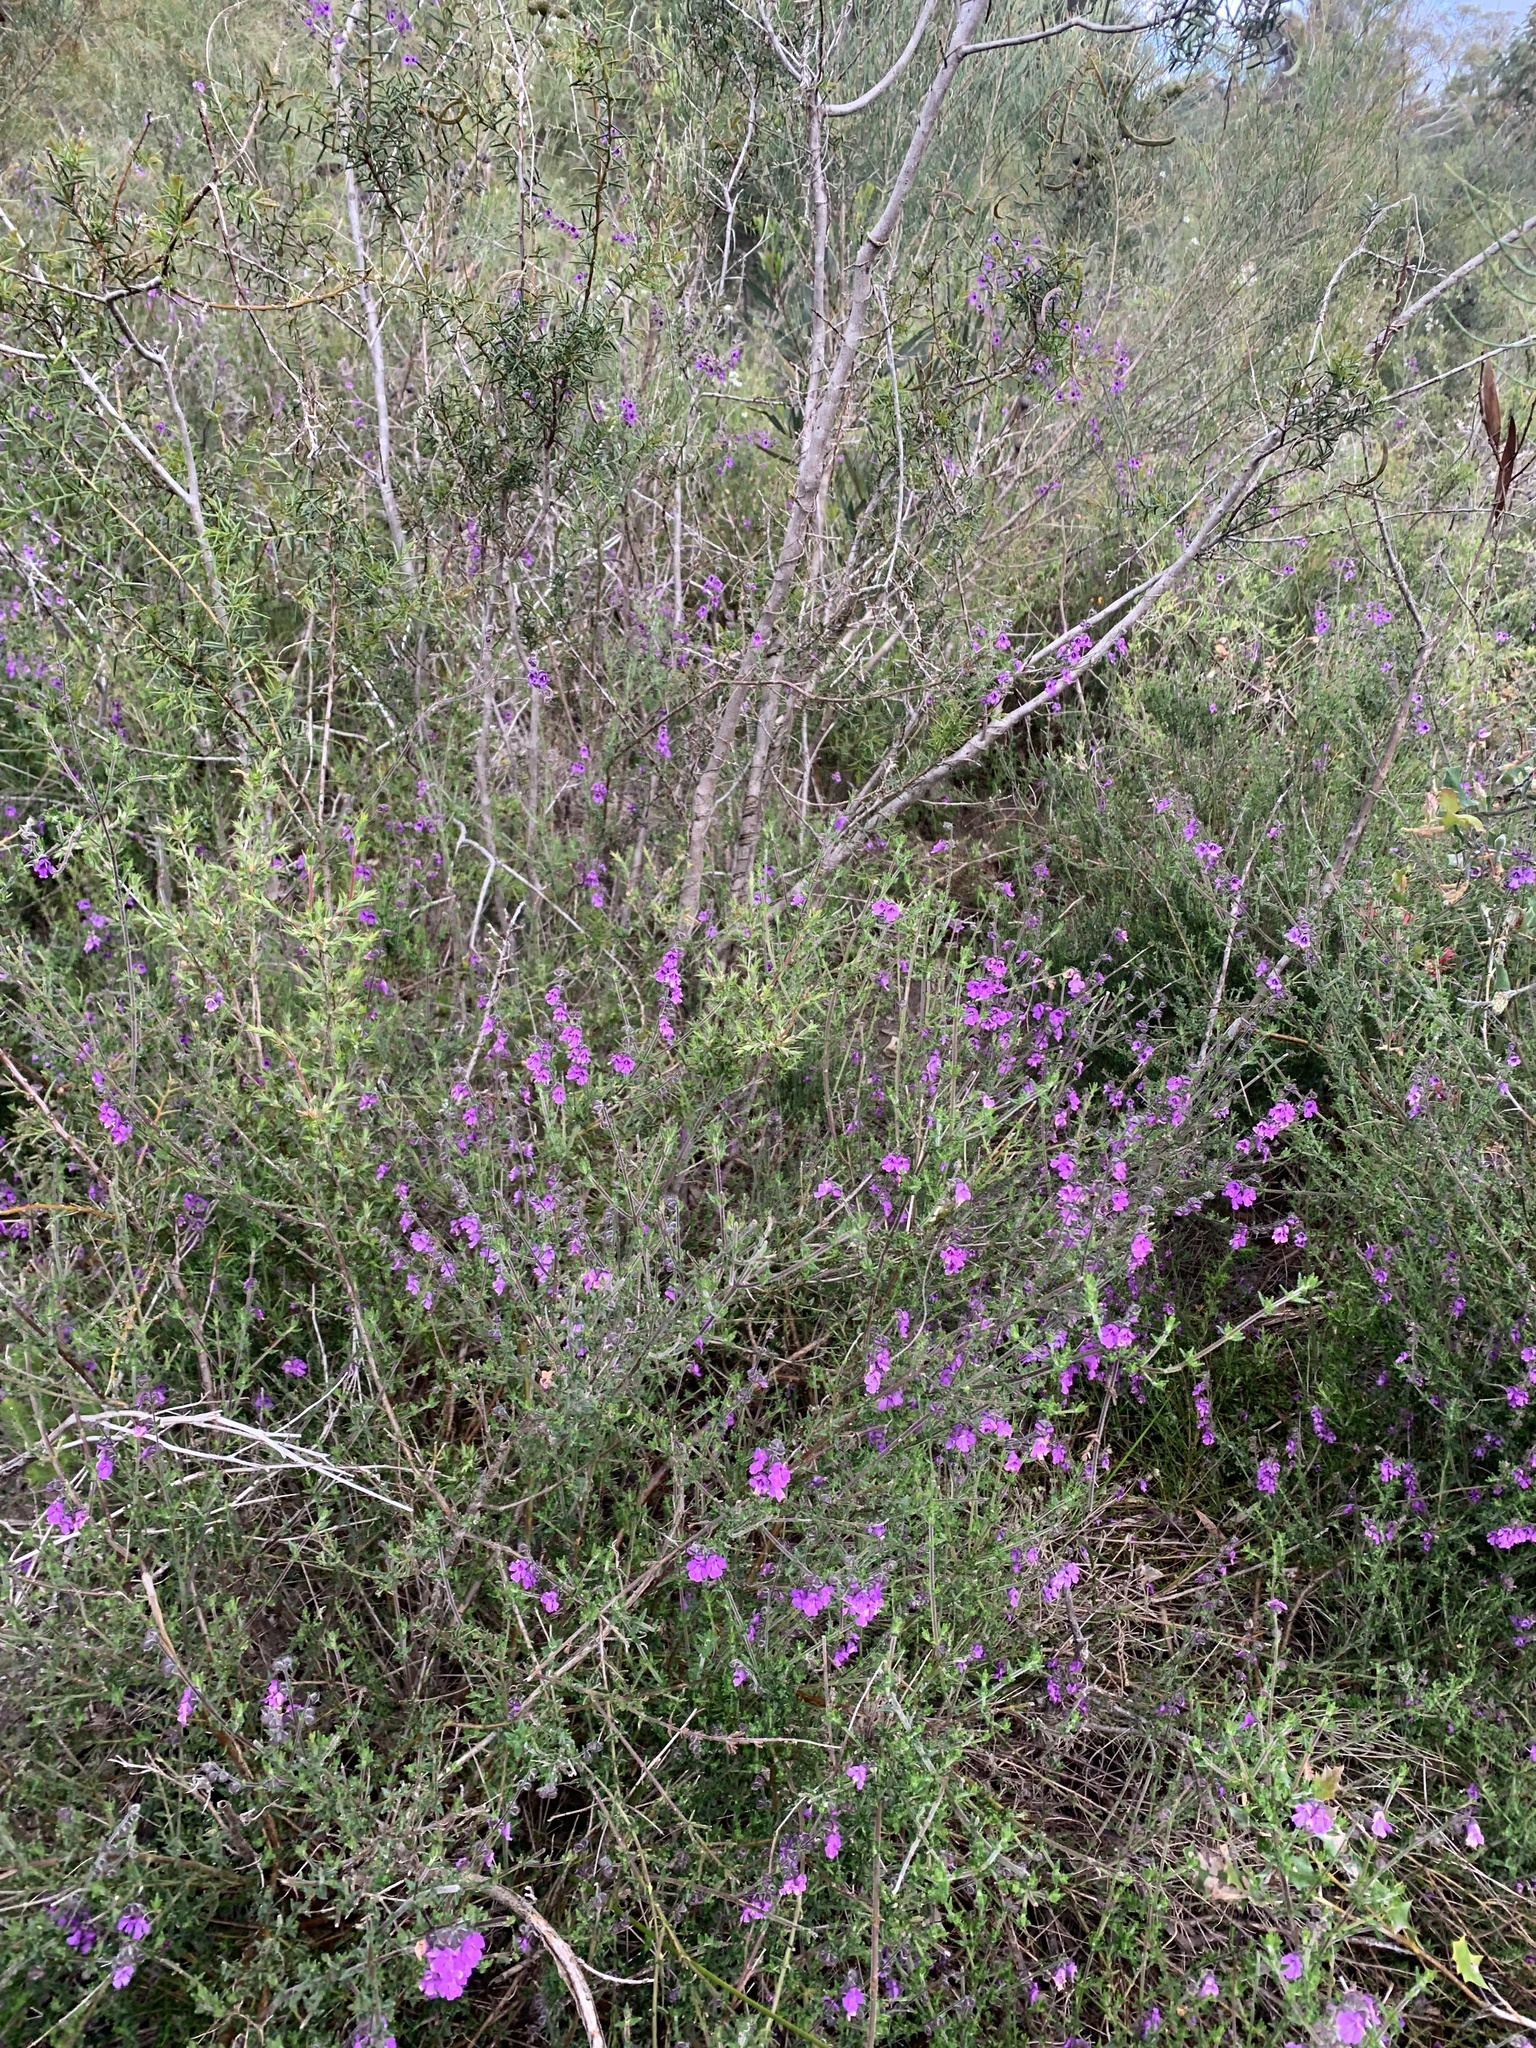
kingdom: Plantae
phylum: Tracheophyta
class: Magnoliopsida
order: Lamiales
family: Lamiaceae
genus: Prostanthera
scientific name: Prostanthera hirtula
